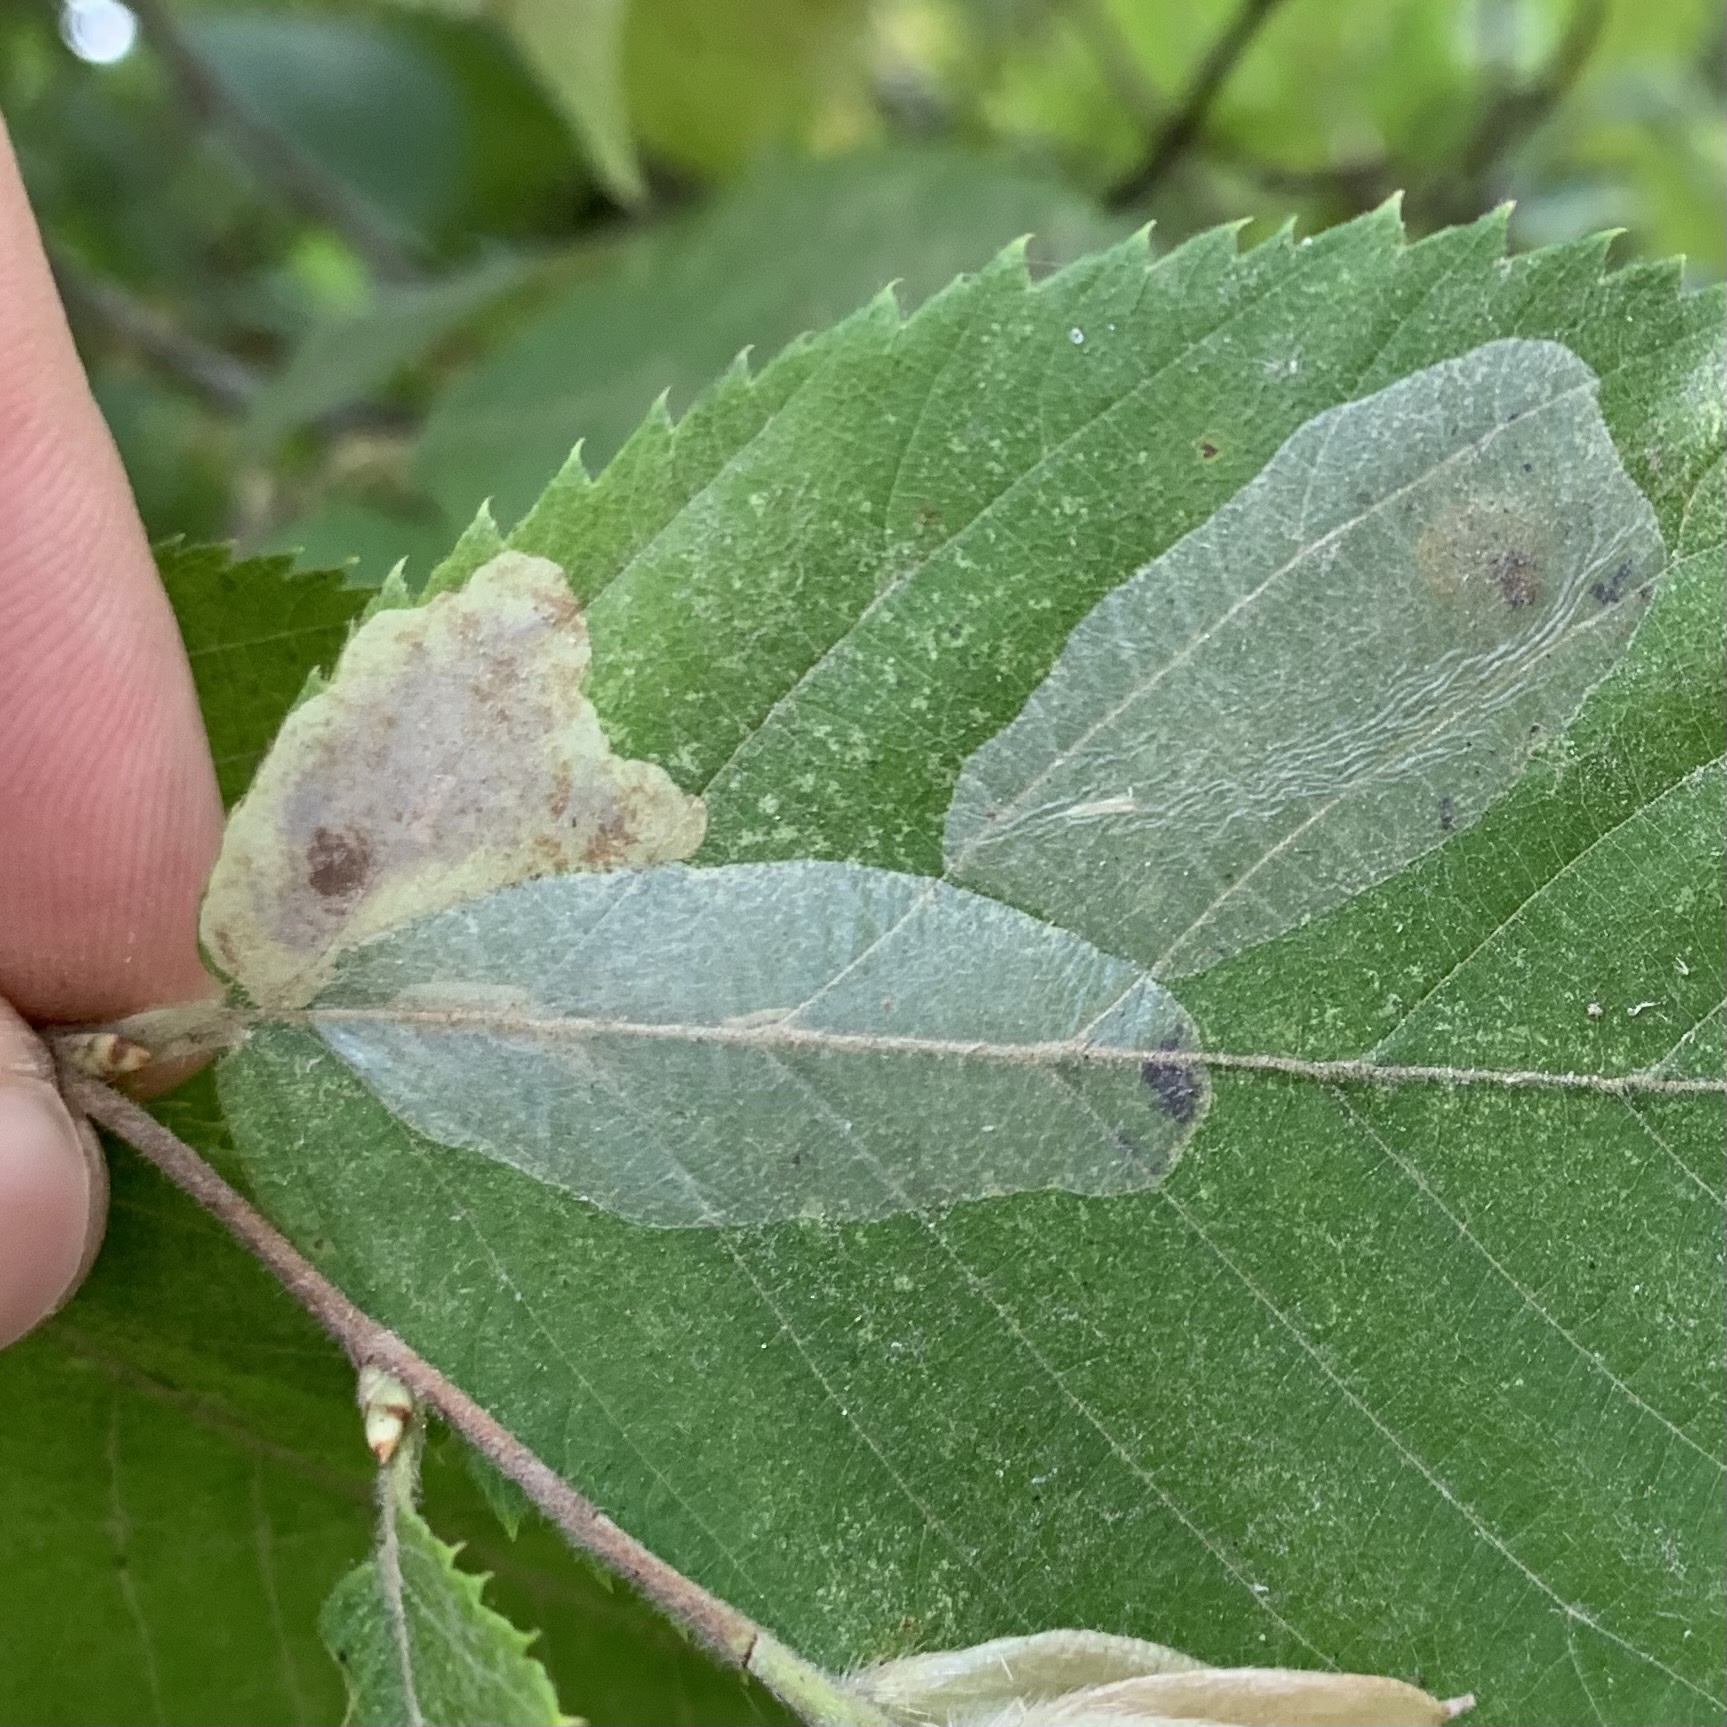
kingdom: Animalia
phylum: Arthropoda
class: Insecta
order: Lepidoptera
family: Gracillariidae
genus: Phyllonorycter
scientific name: Phyllonorycter tritaenianella
